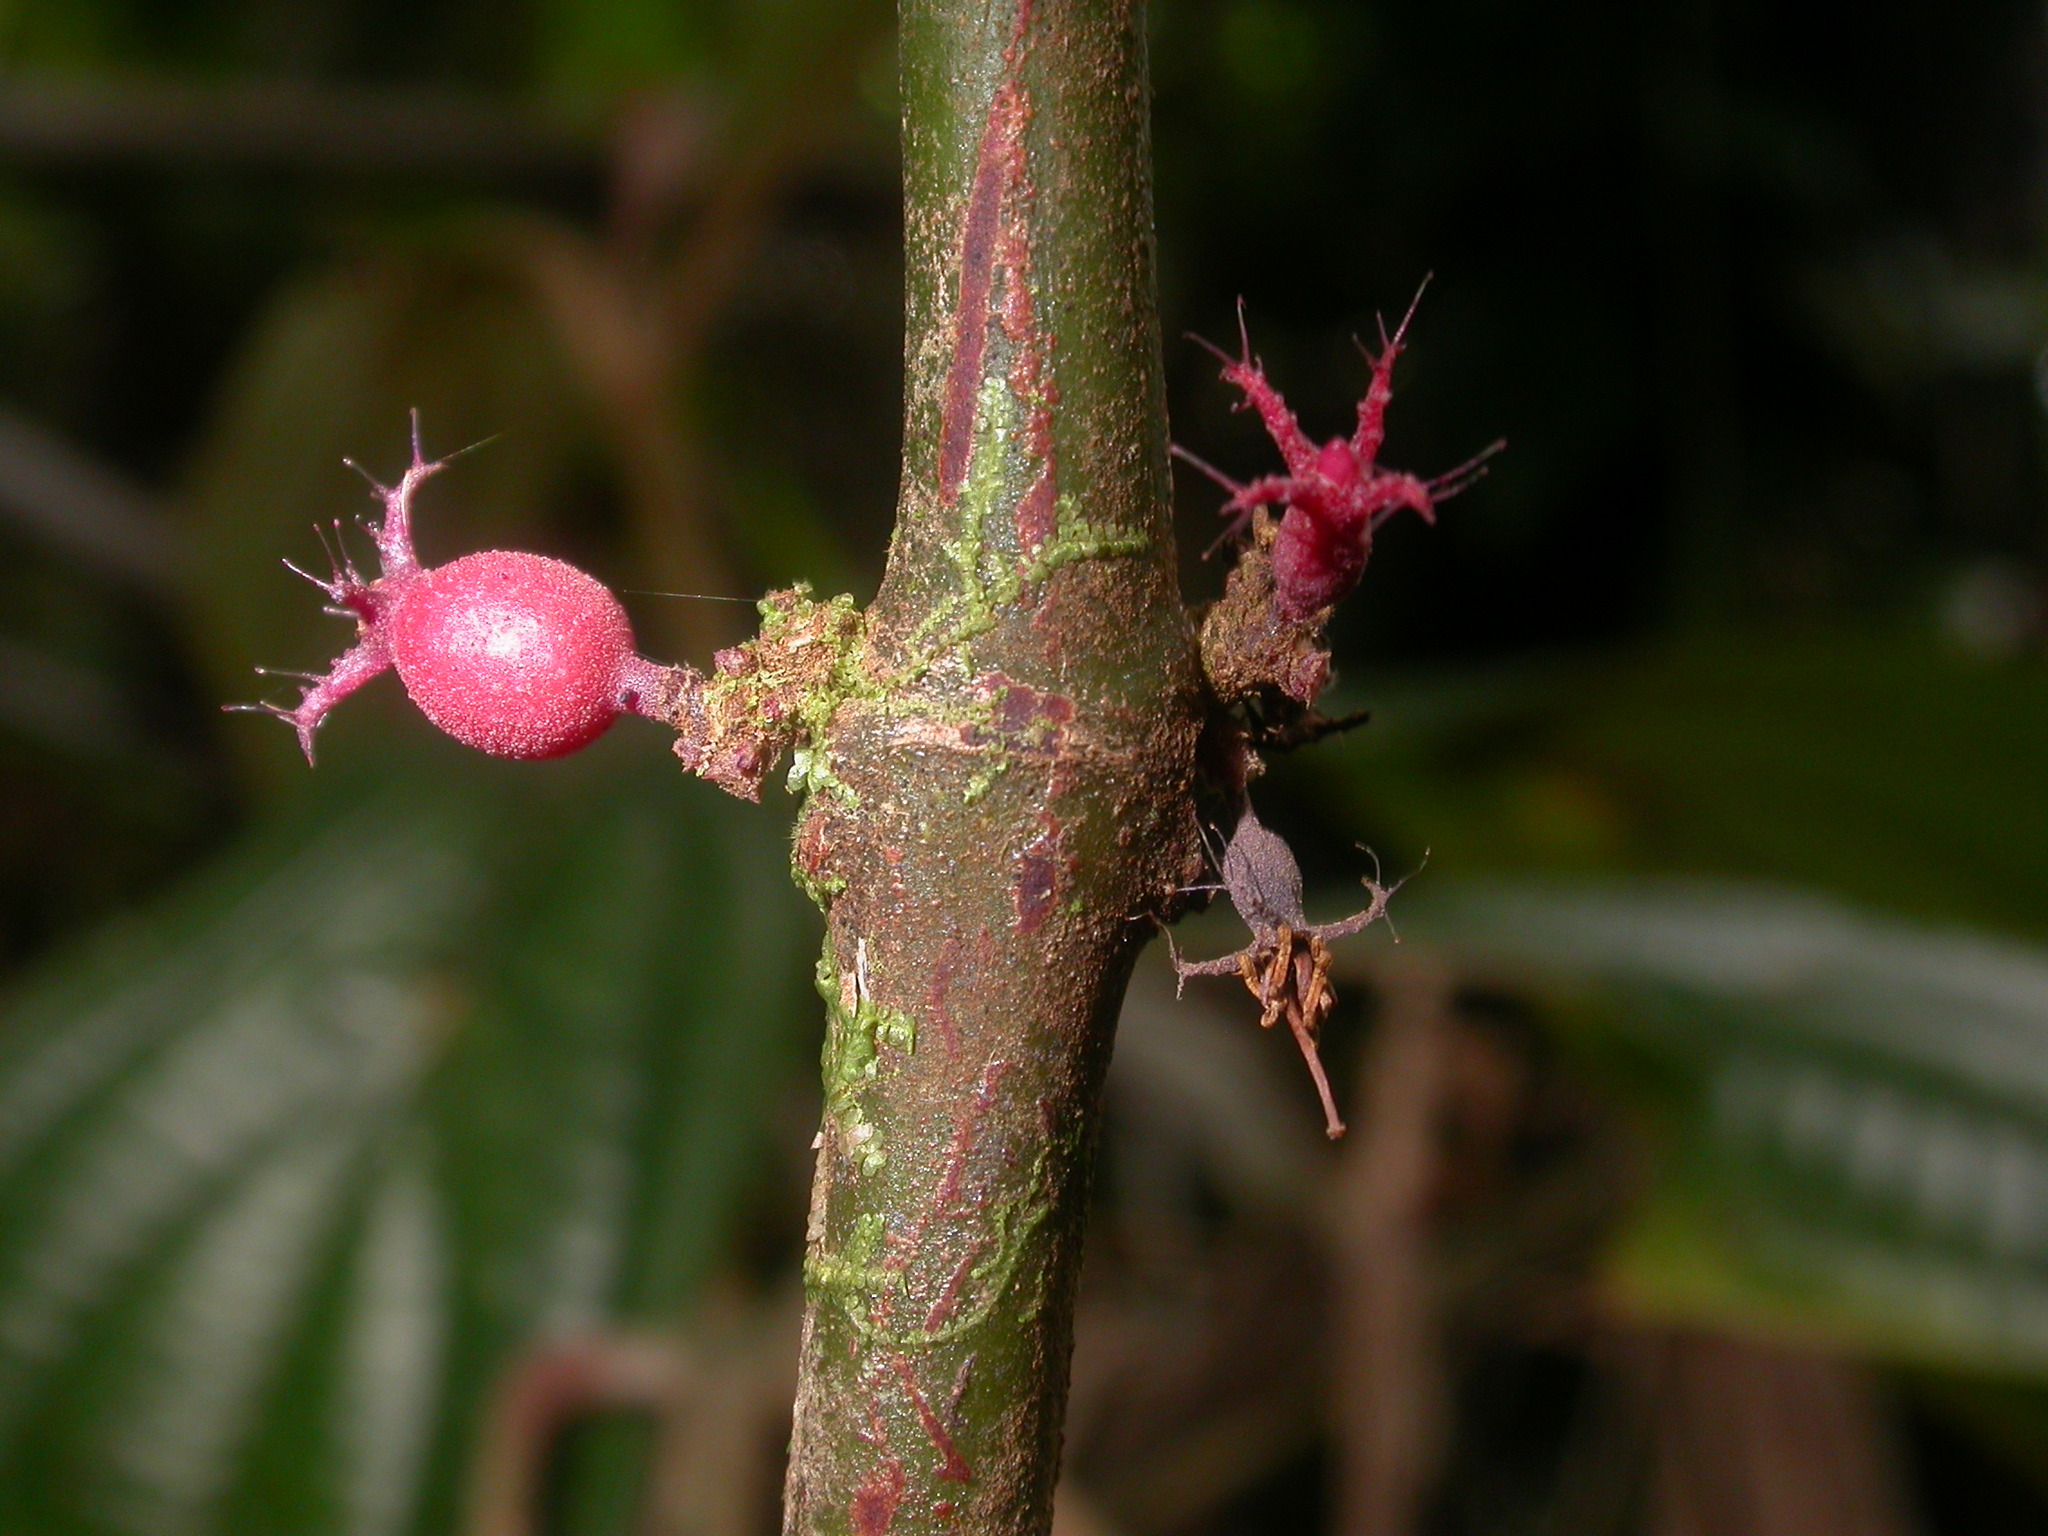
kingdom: Plantae
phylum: Tracheophyta
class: Magnoliopsida
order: Myrtales
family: Melastomataceae
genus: Miconia
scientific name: Miconia trichocalyx
